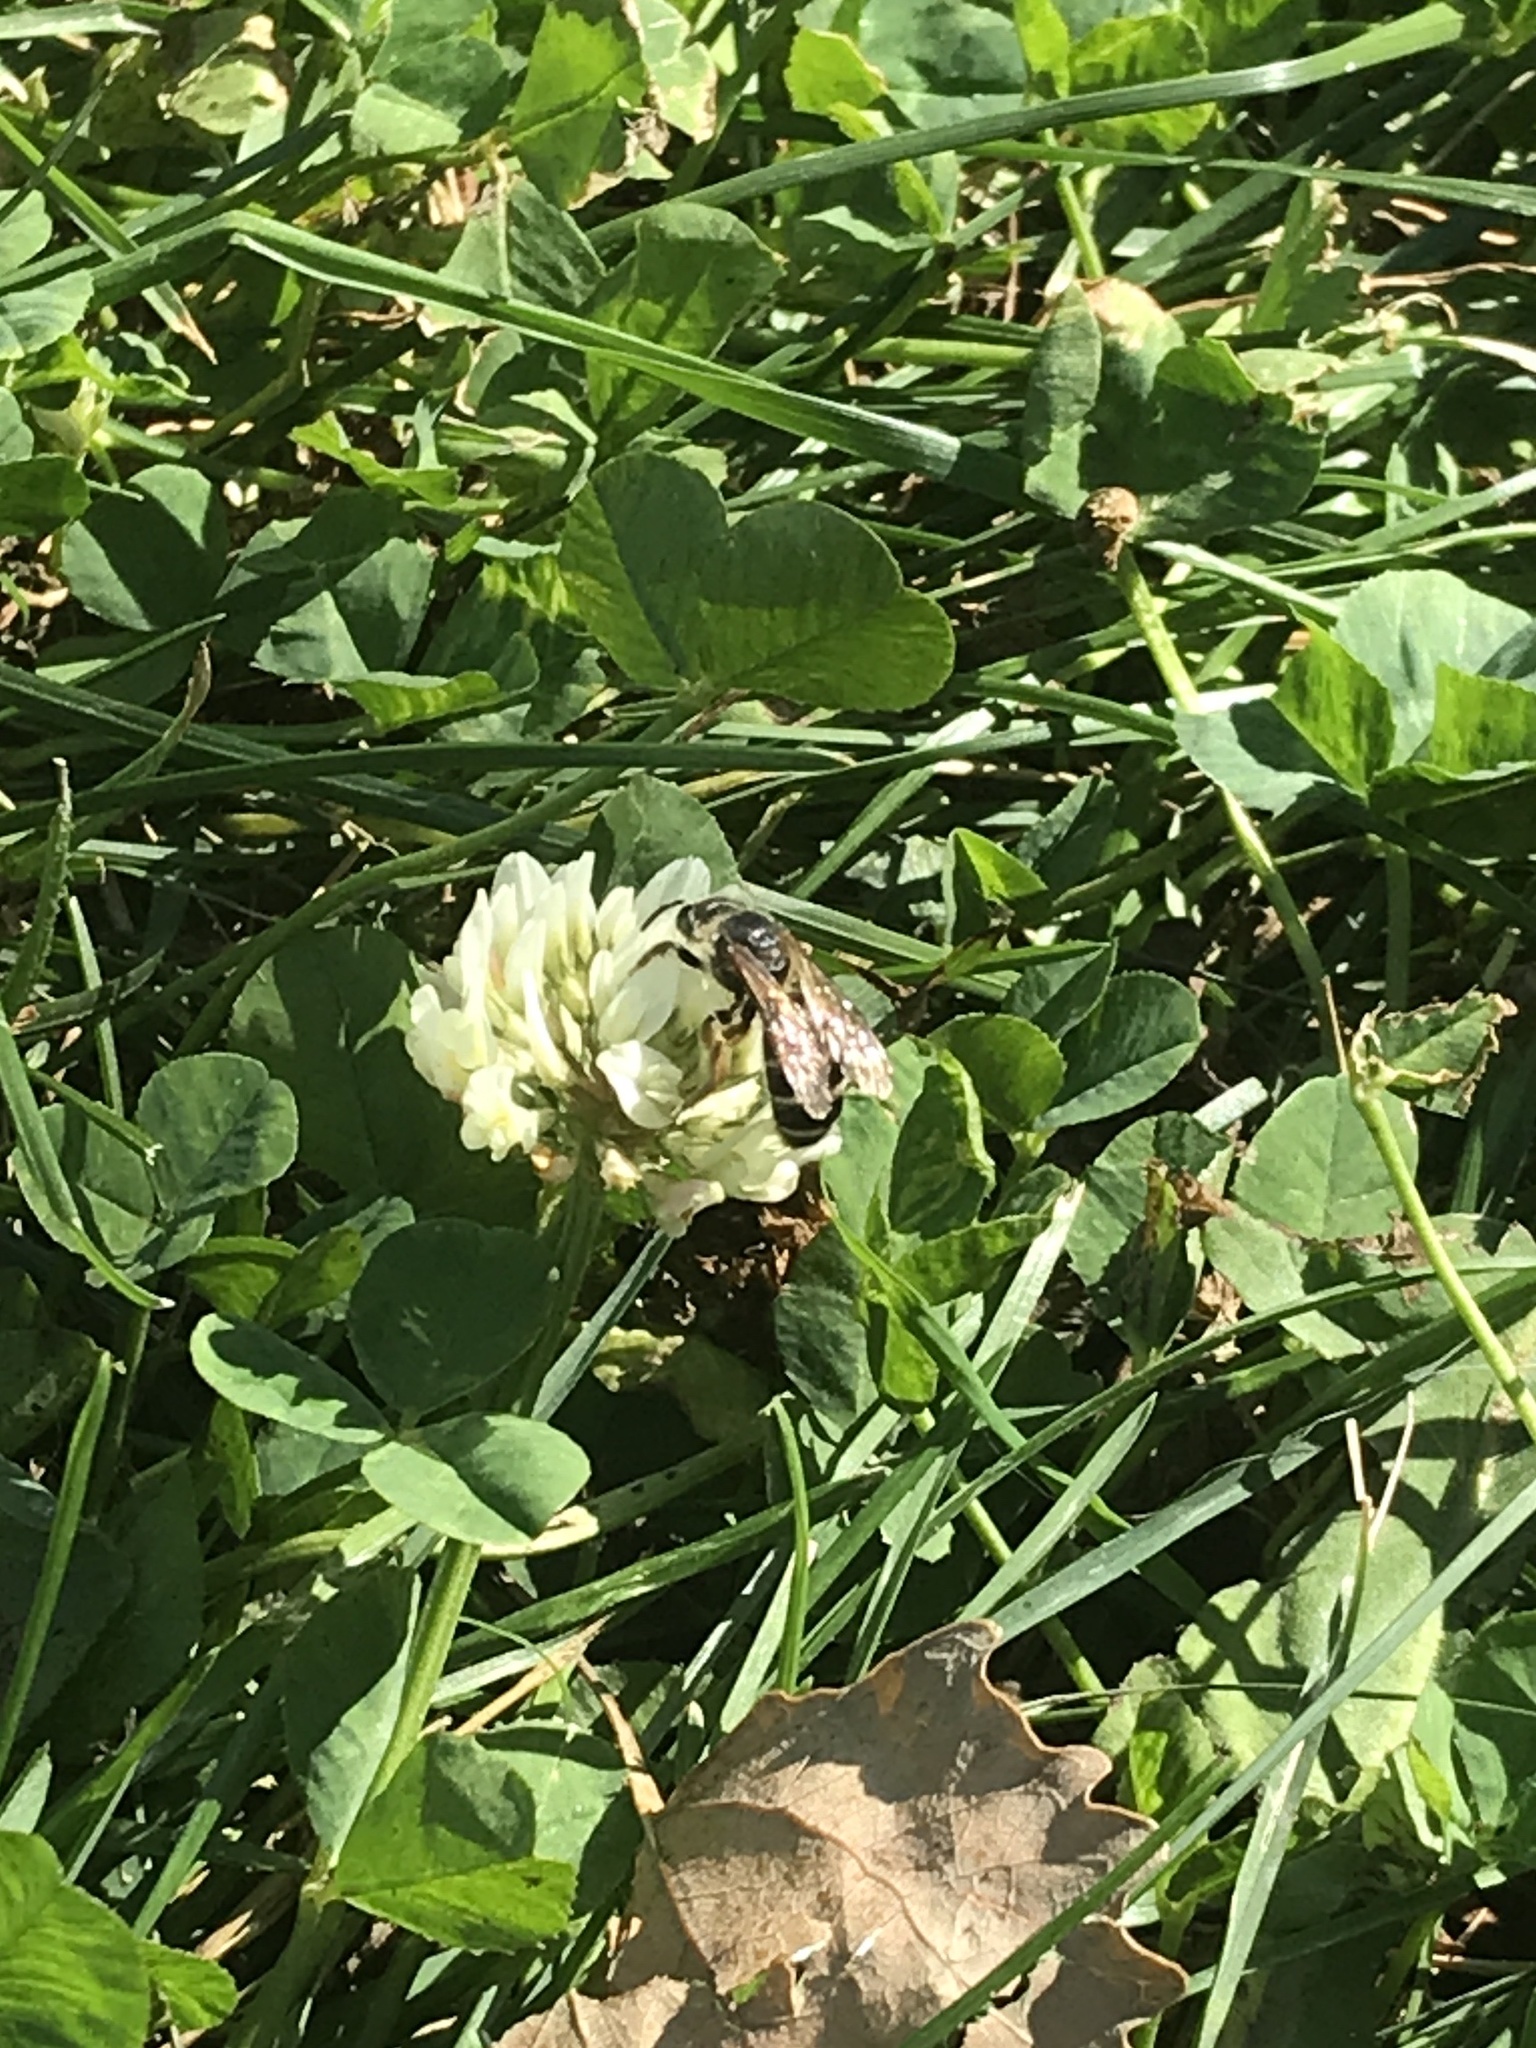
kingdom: Animalia
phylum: Arthropoda
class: Insecta
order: Hymenoptera
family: Halictidae
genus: Halictus
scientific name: Halictus rubicundus
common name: Orange-legged furrow bee
